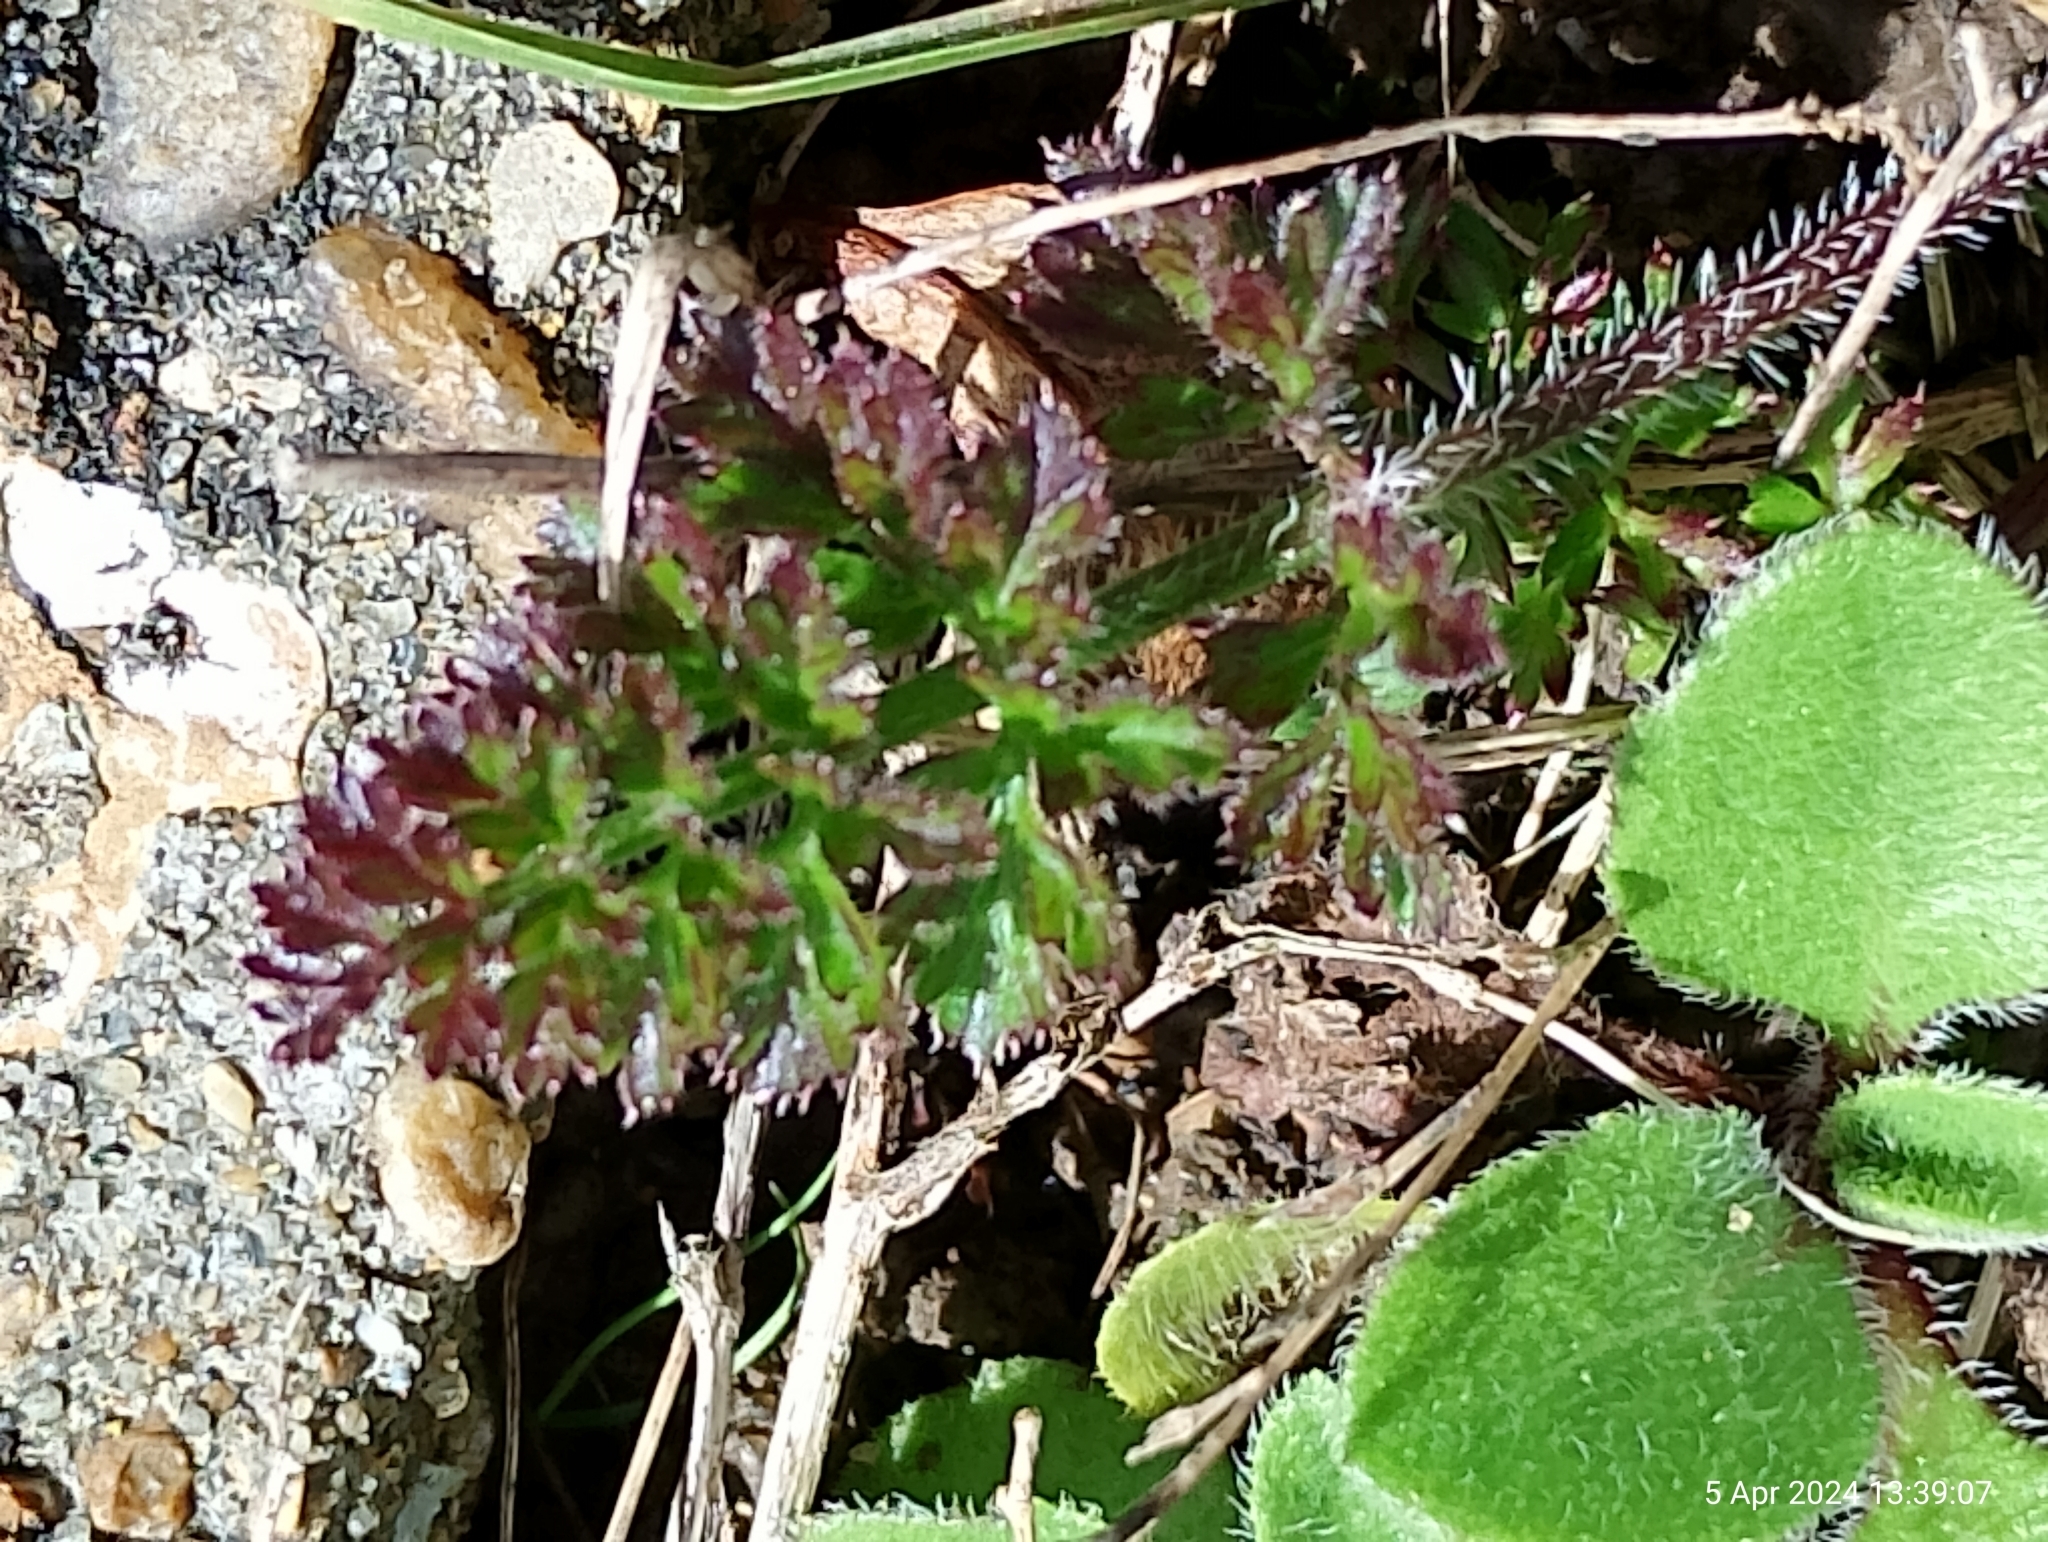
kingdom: Plantae
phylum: Tracheophyta
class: Magnoliopsida
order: Geraniales
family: Geraniaceae
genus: Erodium
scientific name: Erodium cicutarium
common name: Common stork's-bill
